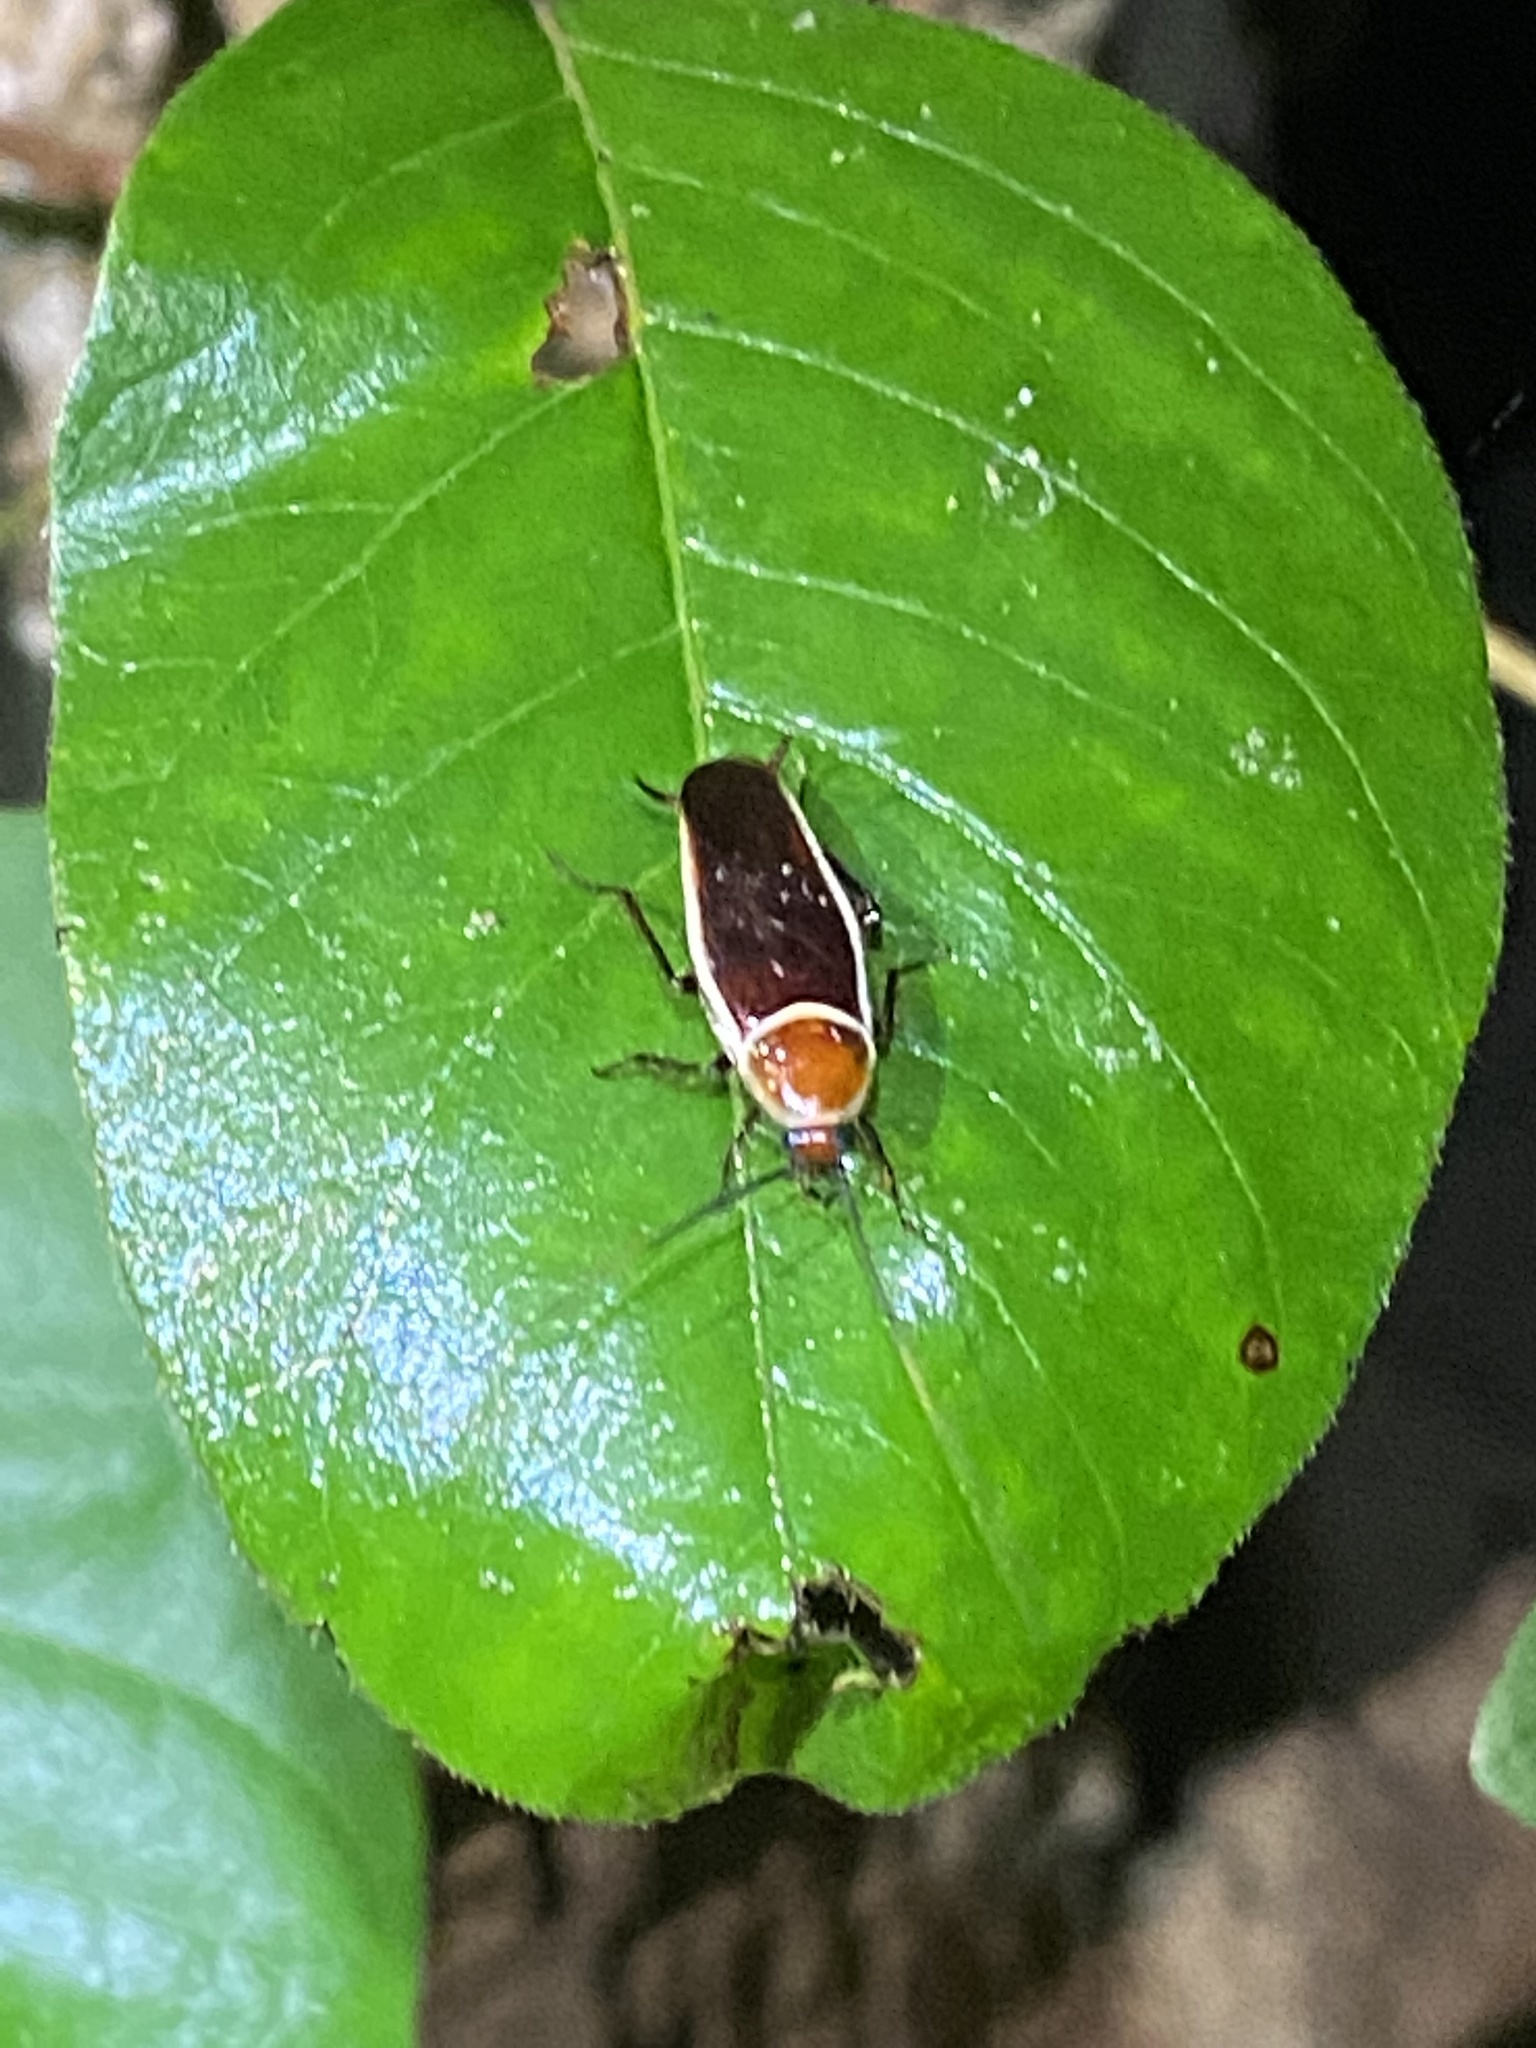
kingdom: Animalia
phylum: Arthropoda
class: Insecta
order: Blattodea
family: Ectobiidae
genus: Pseudomops
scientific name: Pseudomops septentrionalis
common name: Pale-bordered field cockroach
